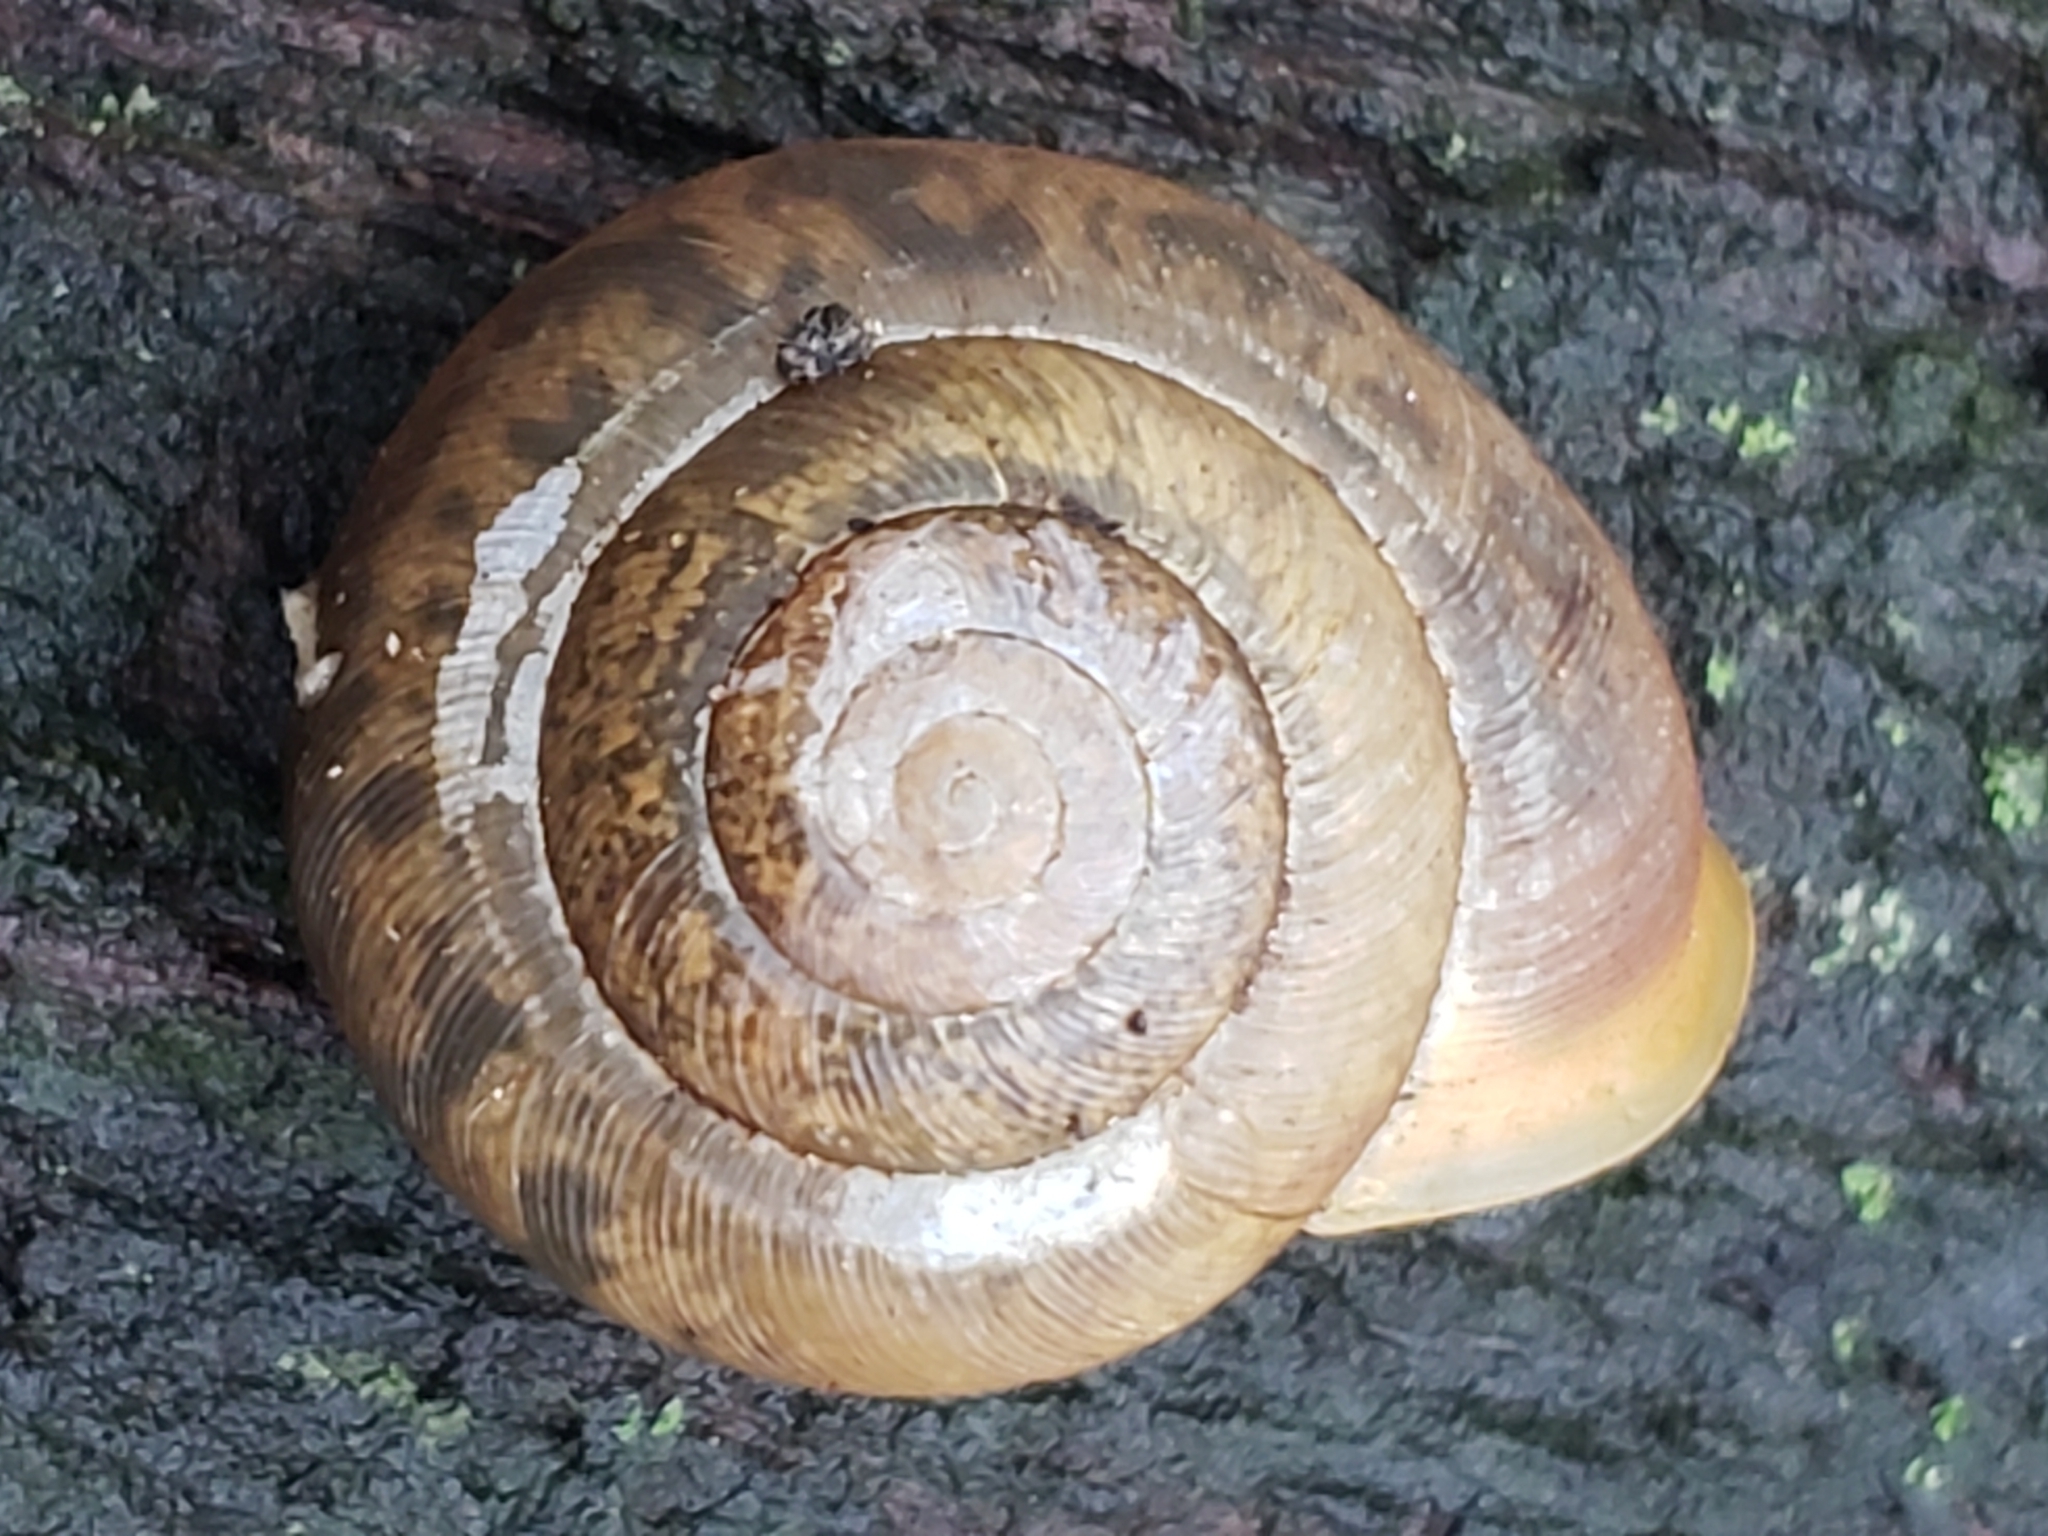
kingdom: Animalia
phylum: Mollusca
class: Gastropoda
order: Stylommatophora
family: Polygyridae
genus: Mesodon
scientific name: Mesodon thyroidus
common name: White-lip globe
